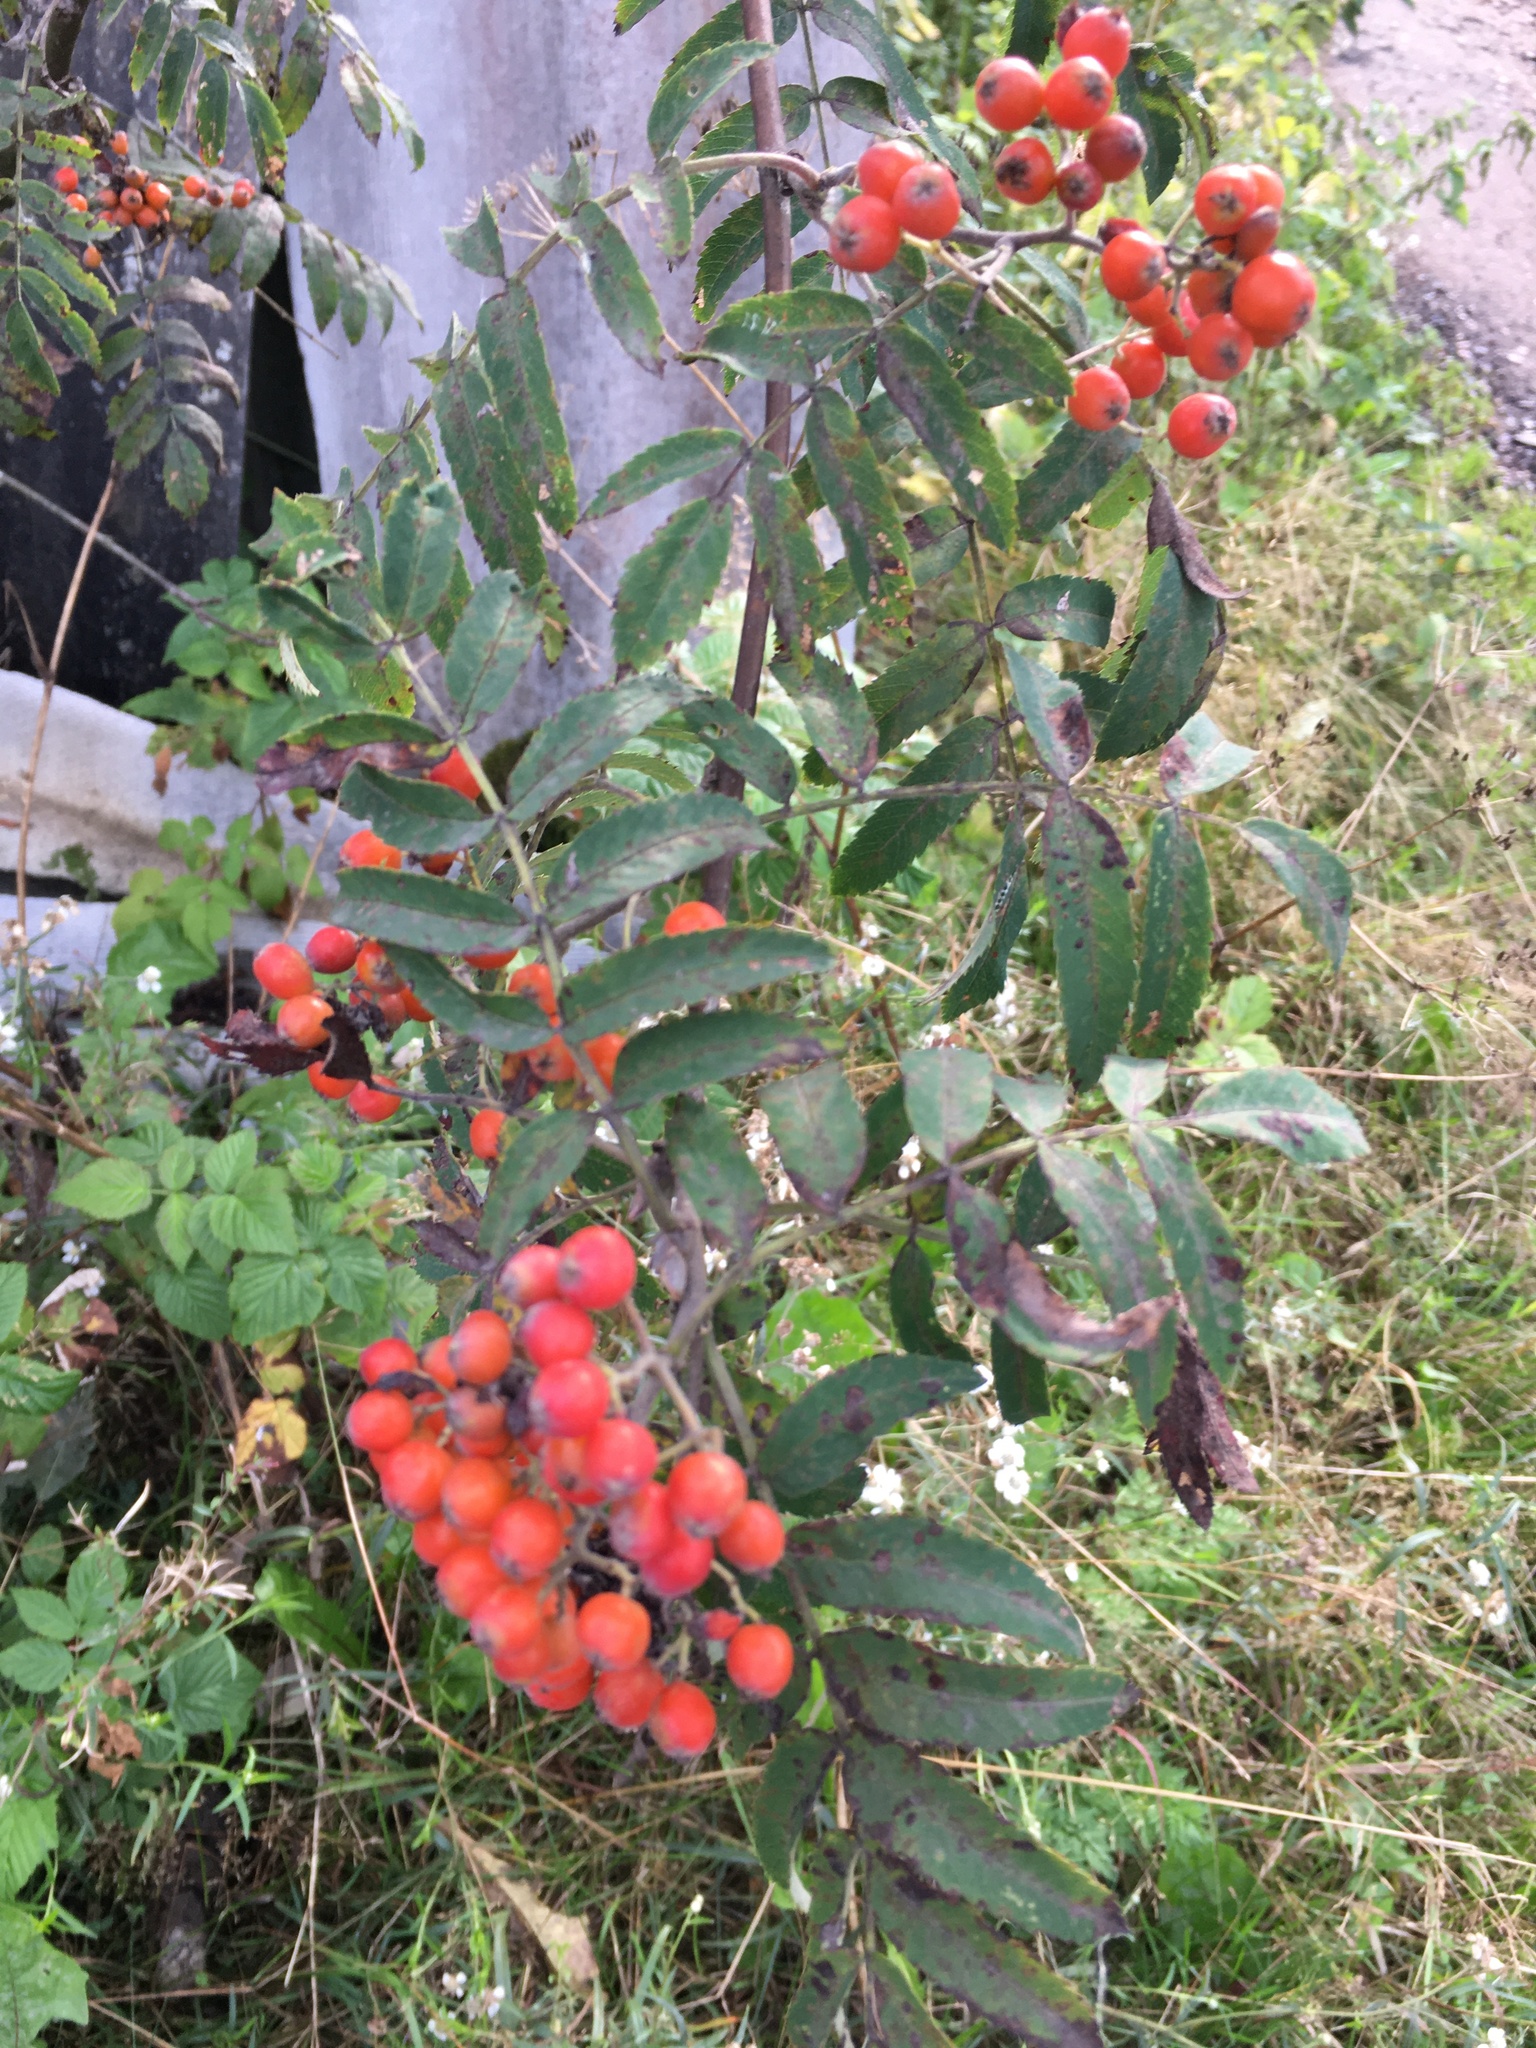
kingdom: Plantae
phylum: Tracheophyta
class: Magnoliopsida
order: Rosales
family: Rosaceae
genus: Sorbus
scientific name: Sorbus aucuparia
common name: Rowan
